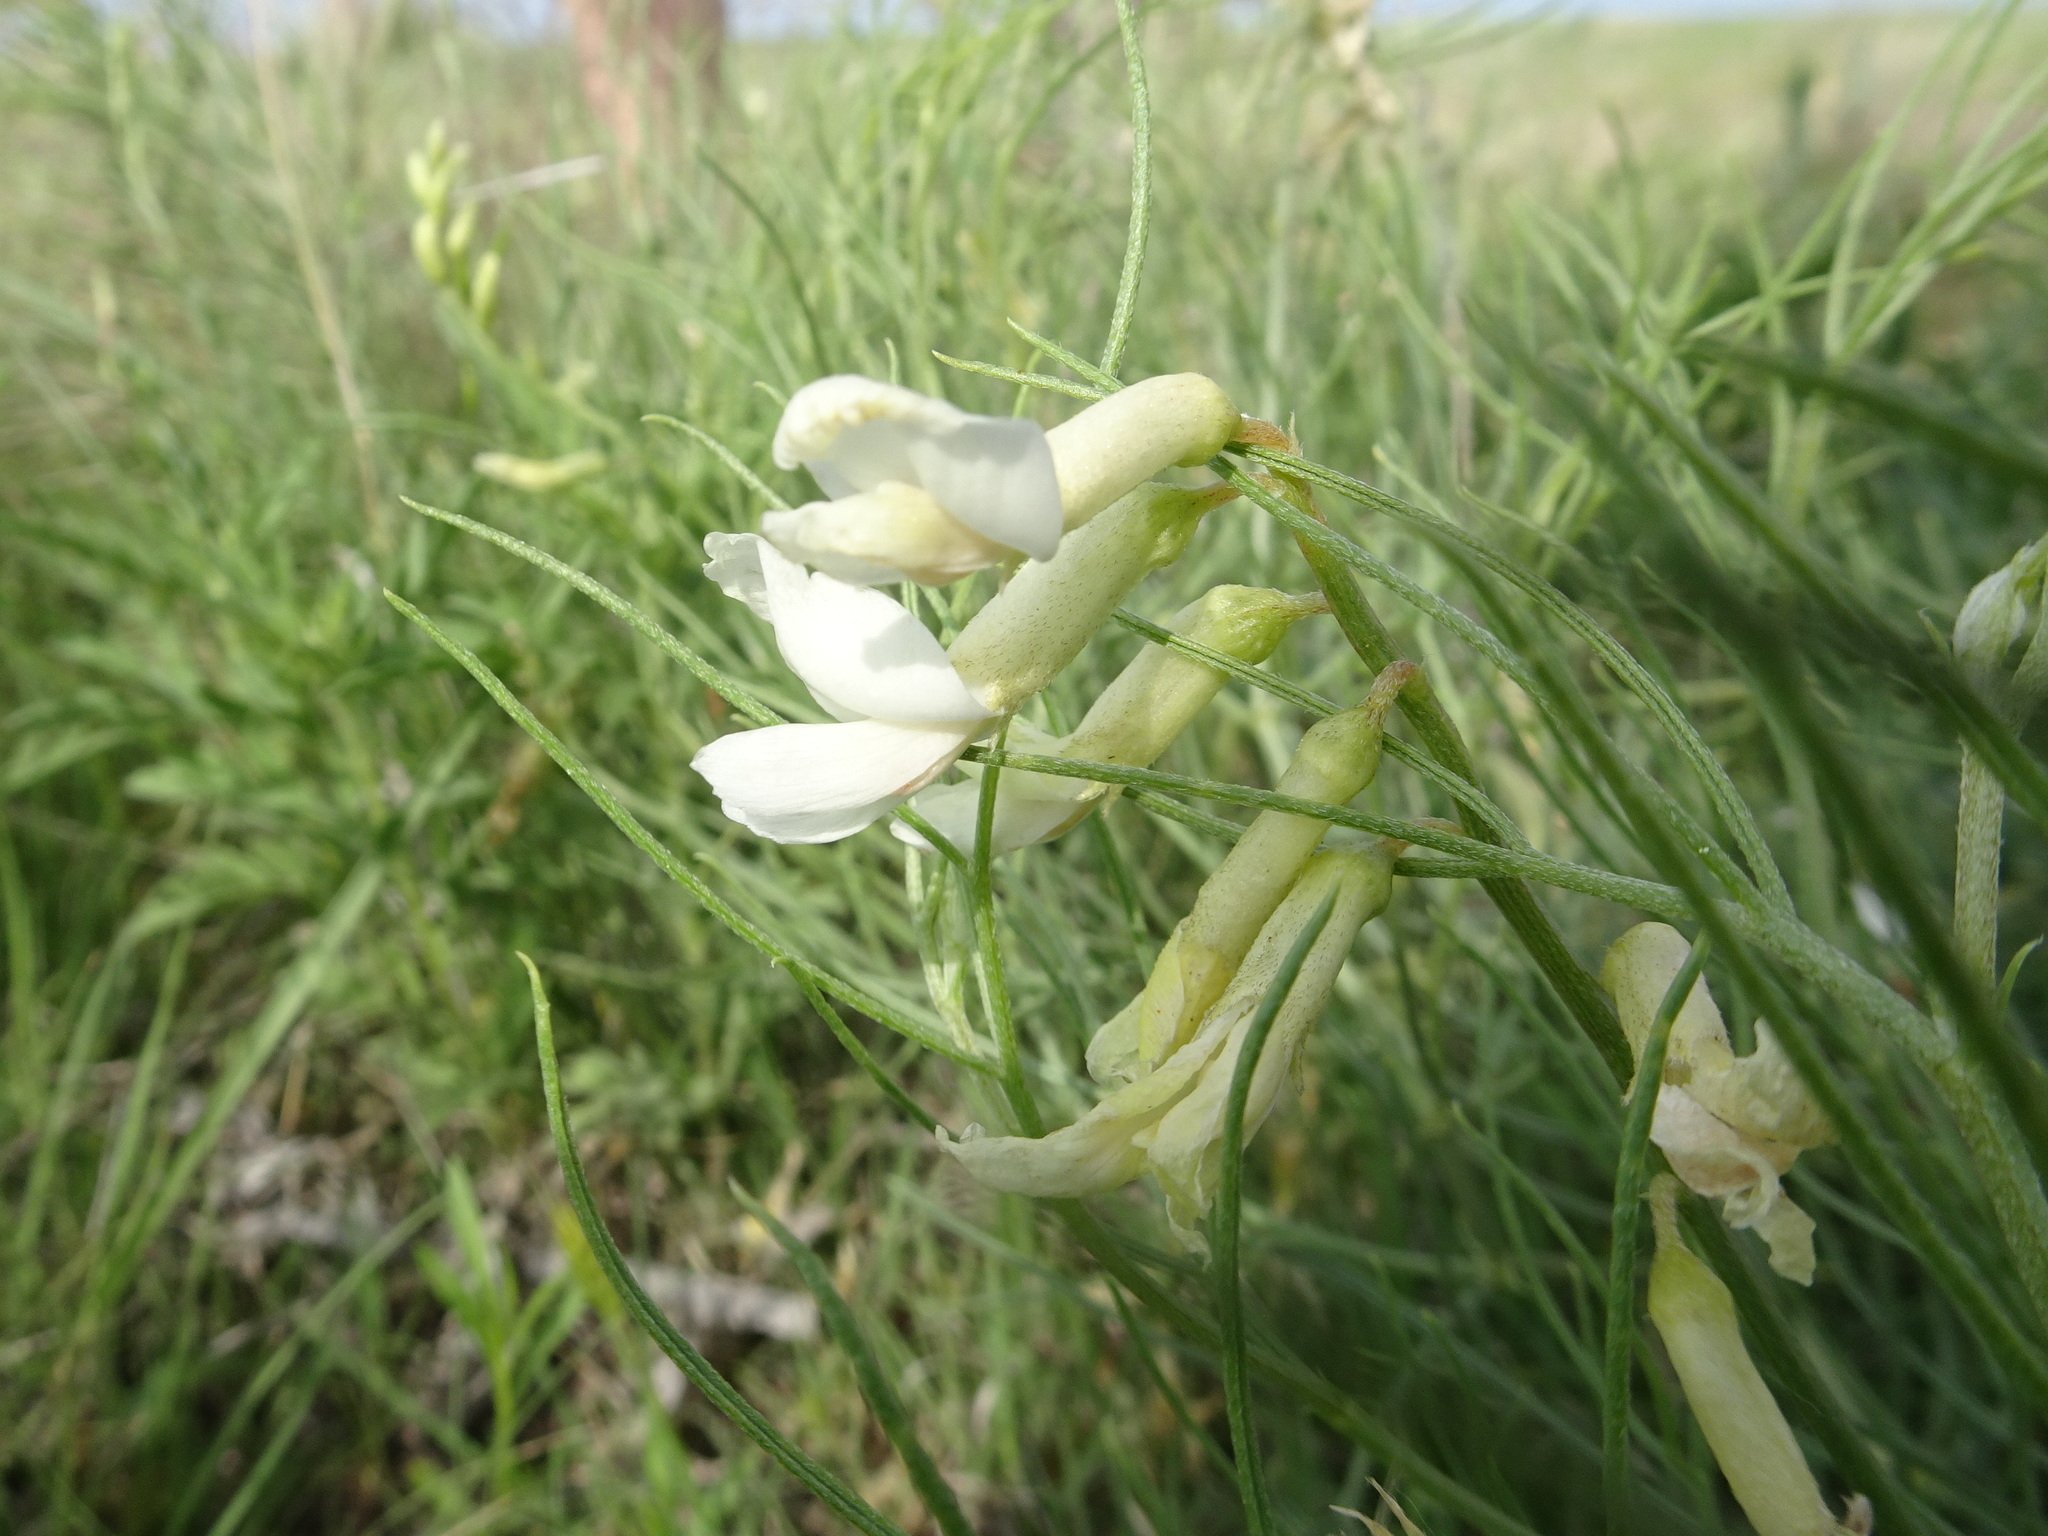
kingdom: Plantae
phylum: Tracheophyta
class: Magnoliopsida
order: Fabales
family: Fabaceae
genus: Astragalus
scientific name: Astragalus pectinatus
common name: Tine-leaf milk-vetch
